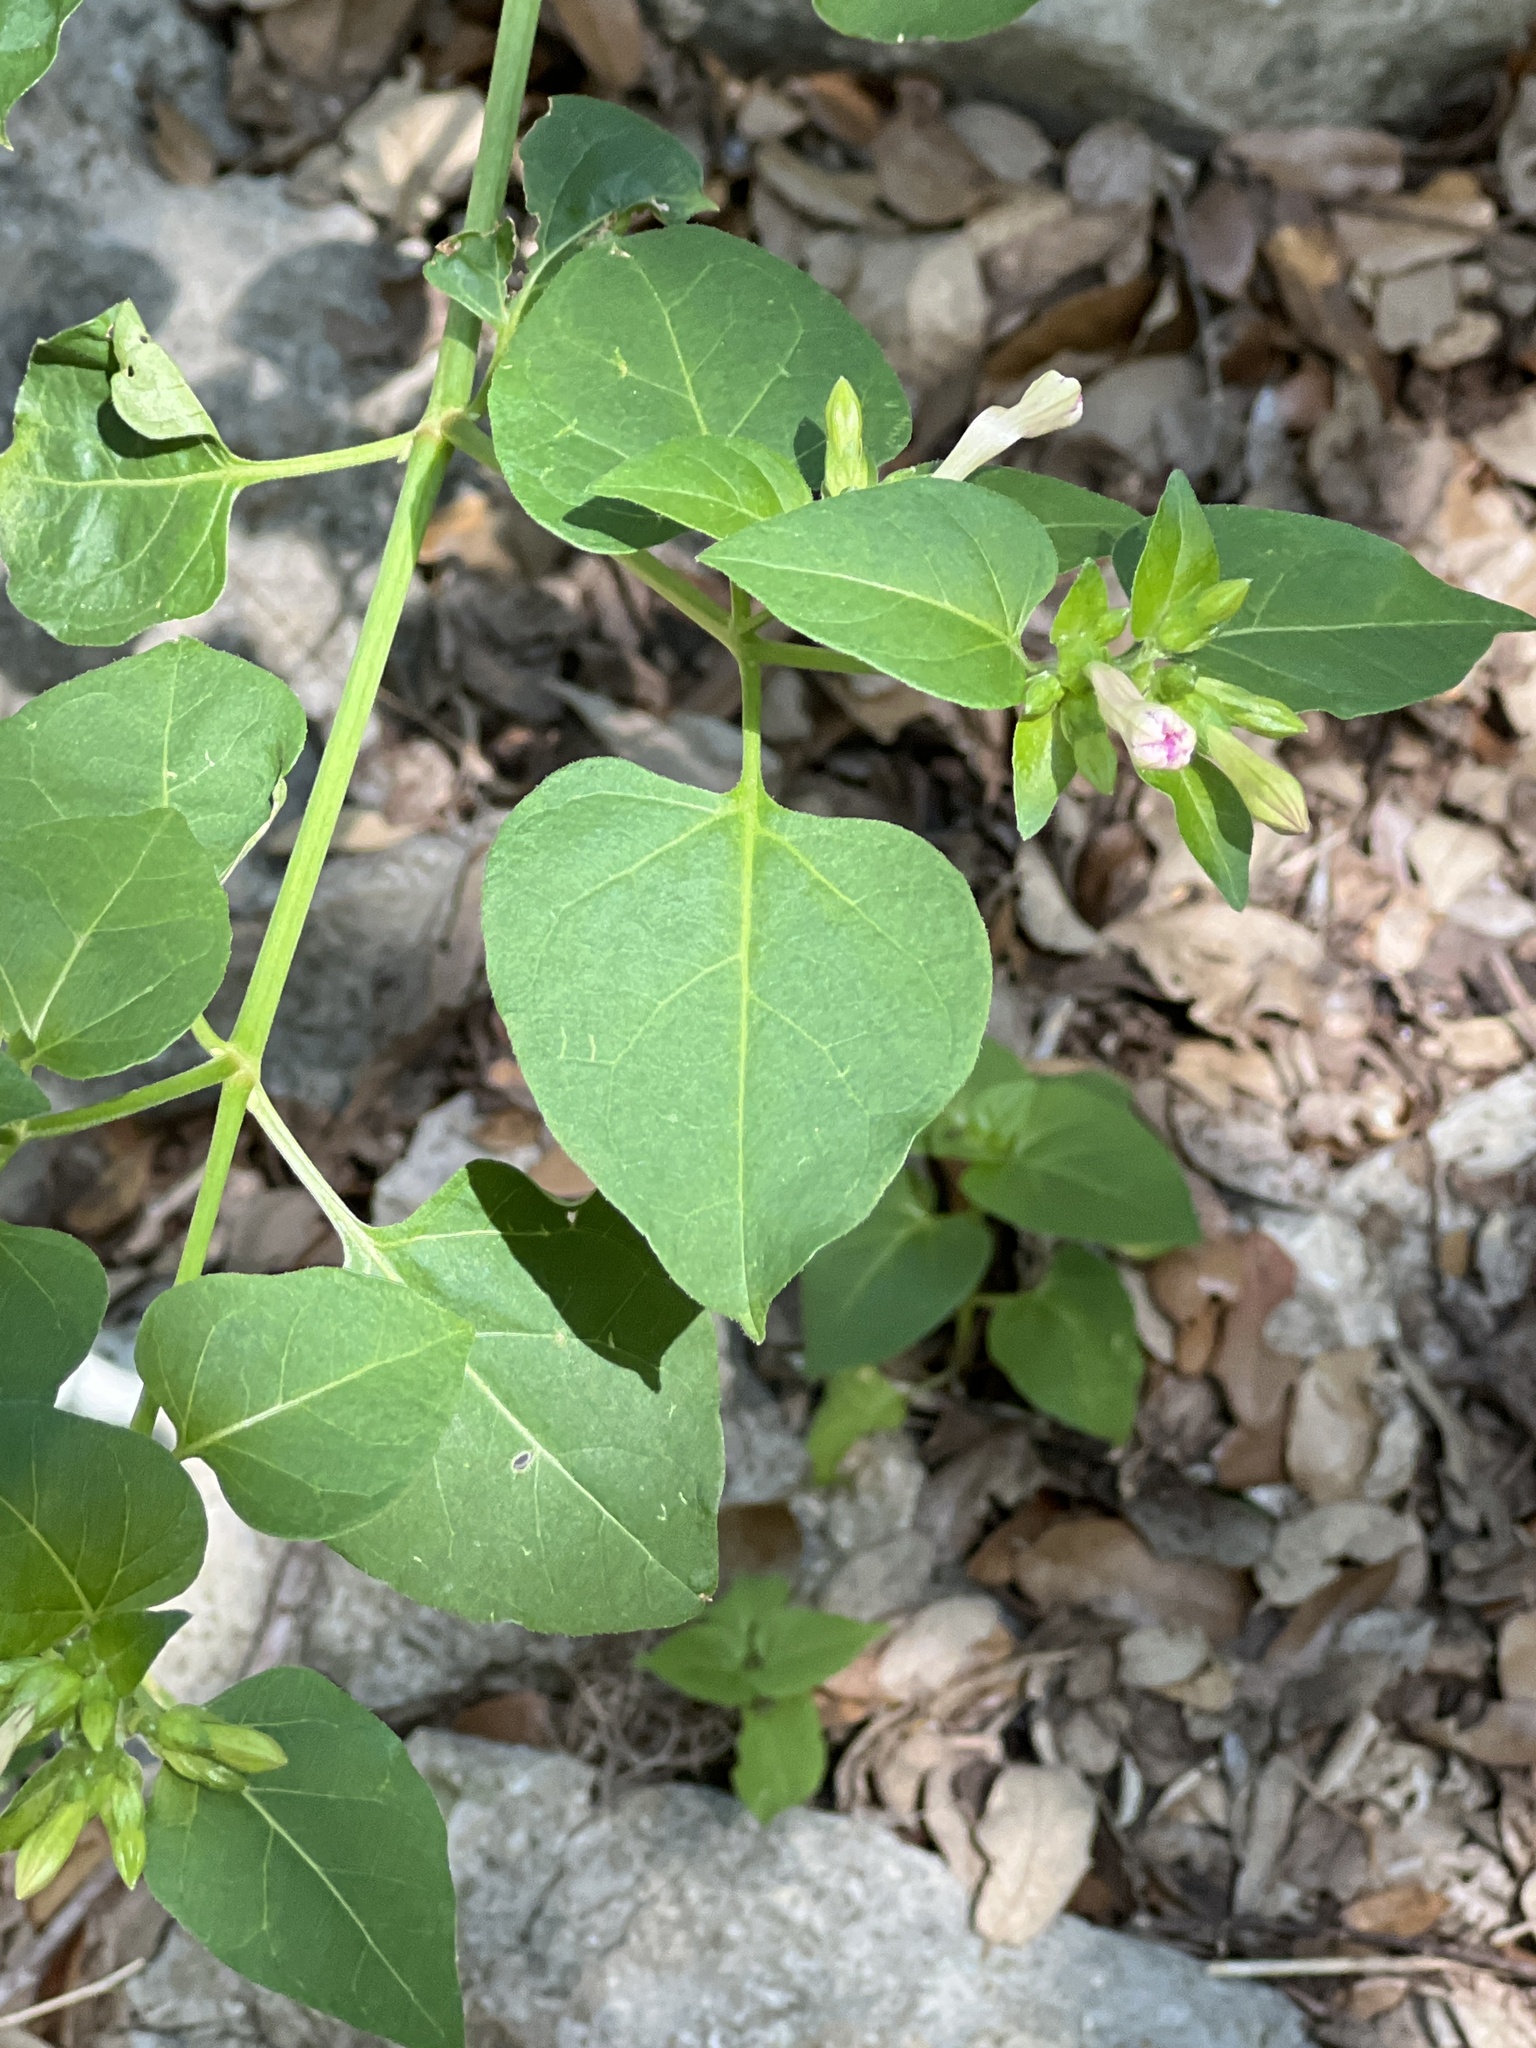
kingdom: Plantae
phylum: Tracheophyta
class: Magnoliopsida
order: Caryophyllales
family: Nyctaginaceae
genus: Mirabilis
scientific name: Mirabilis jalapa
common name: Marvel-of-peru
